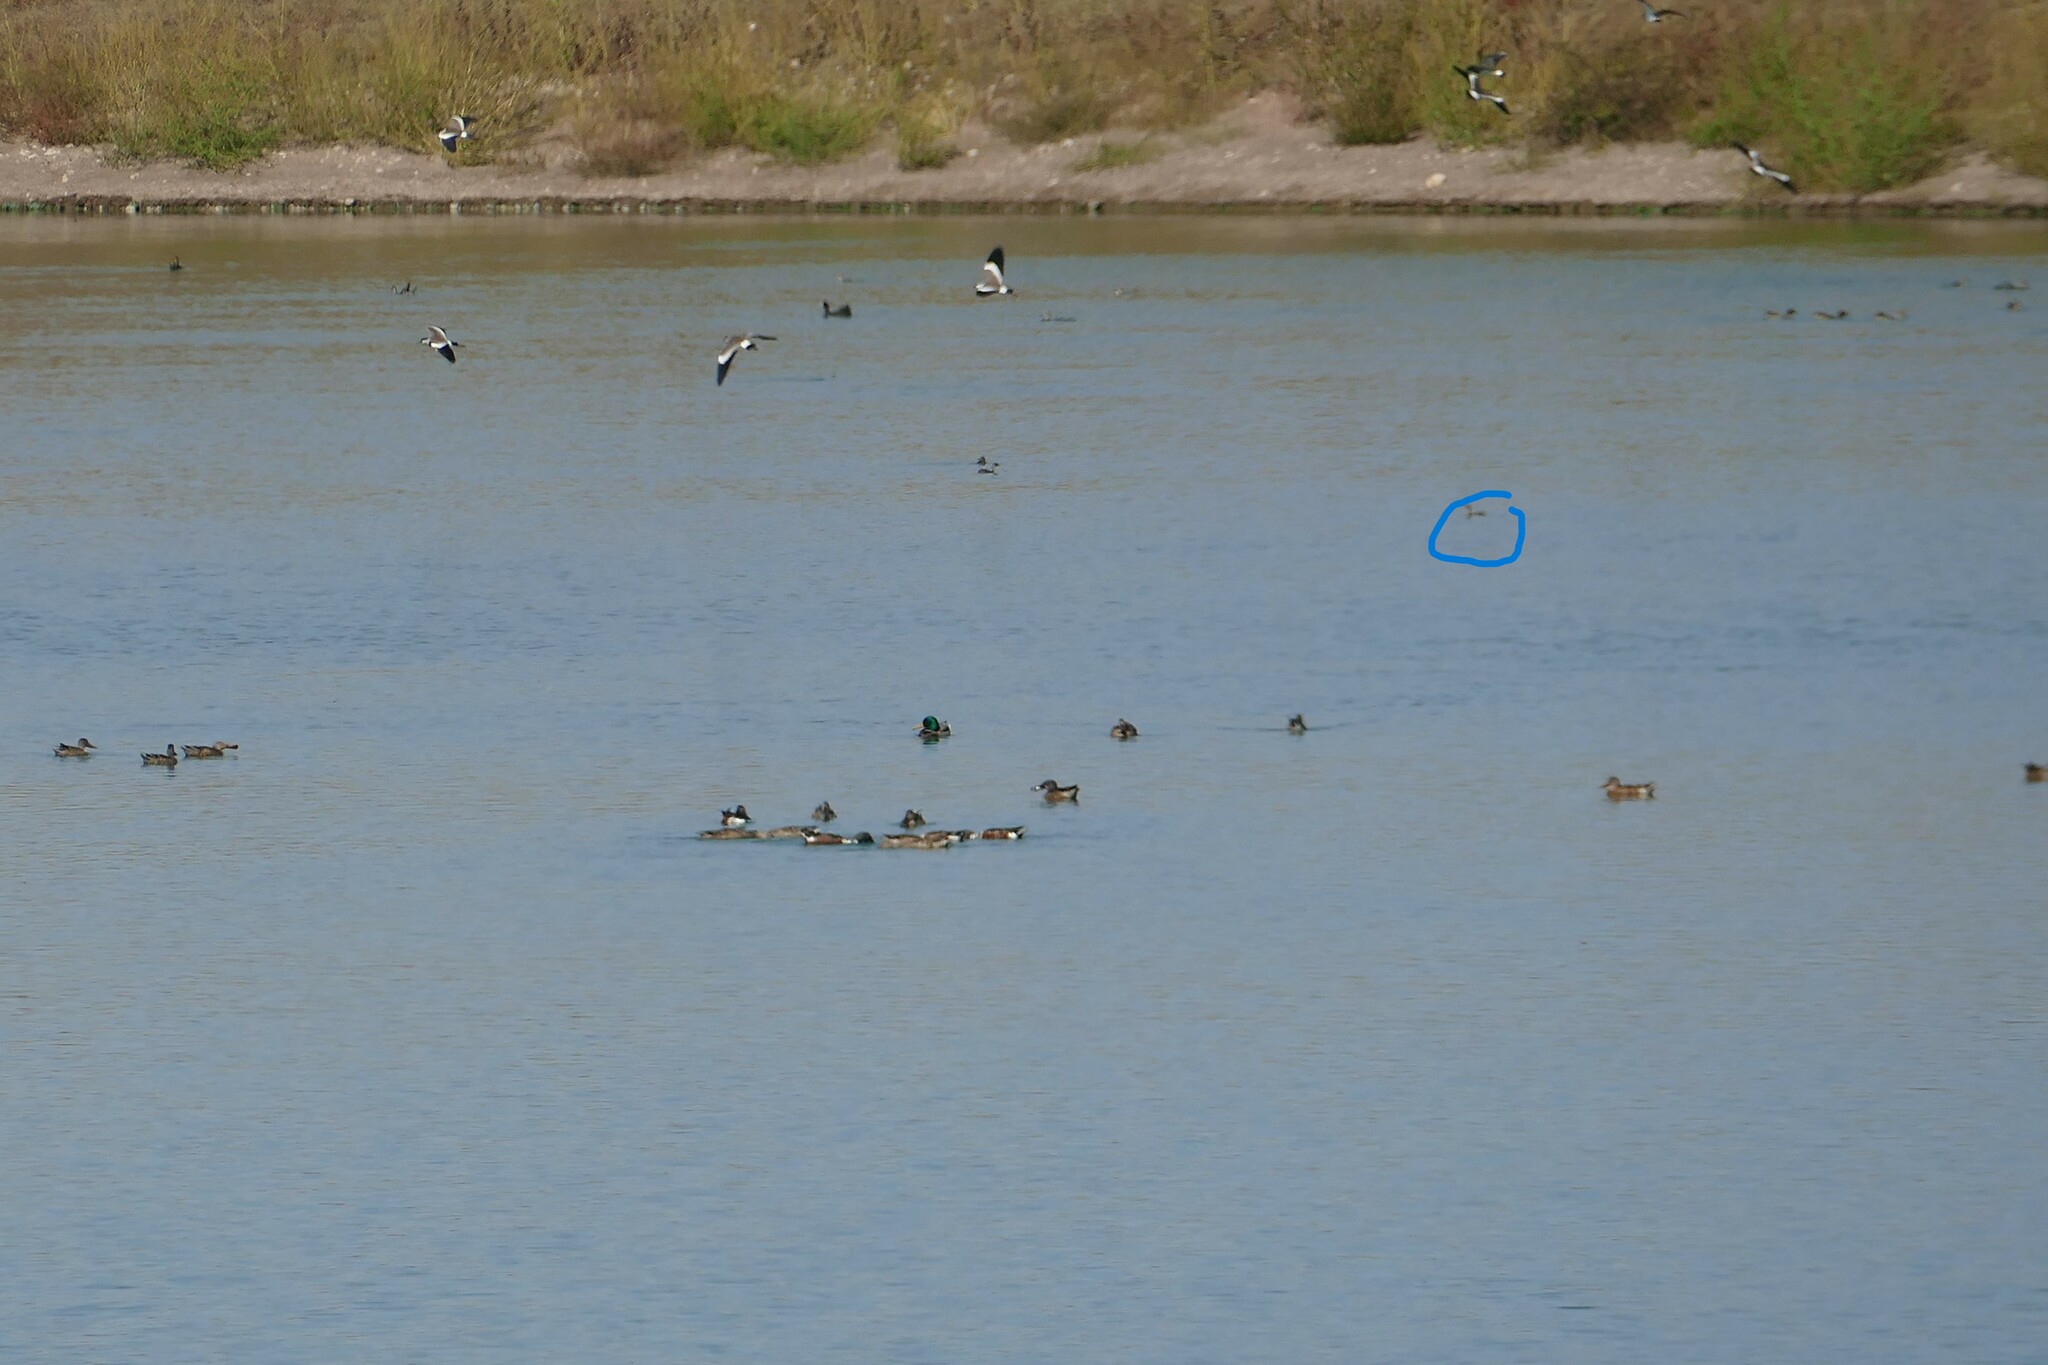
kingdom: Animalia
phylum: Chordata
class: Aves
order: Podicipediformes
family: Podicipedidae
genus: Tachybaptus
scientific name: Tachybaptus ruficollis
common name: Little grebe
